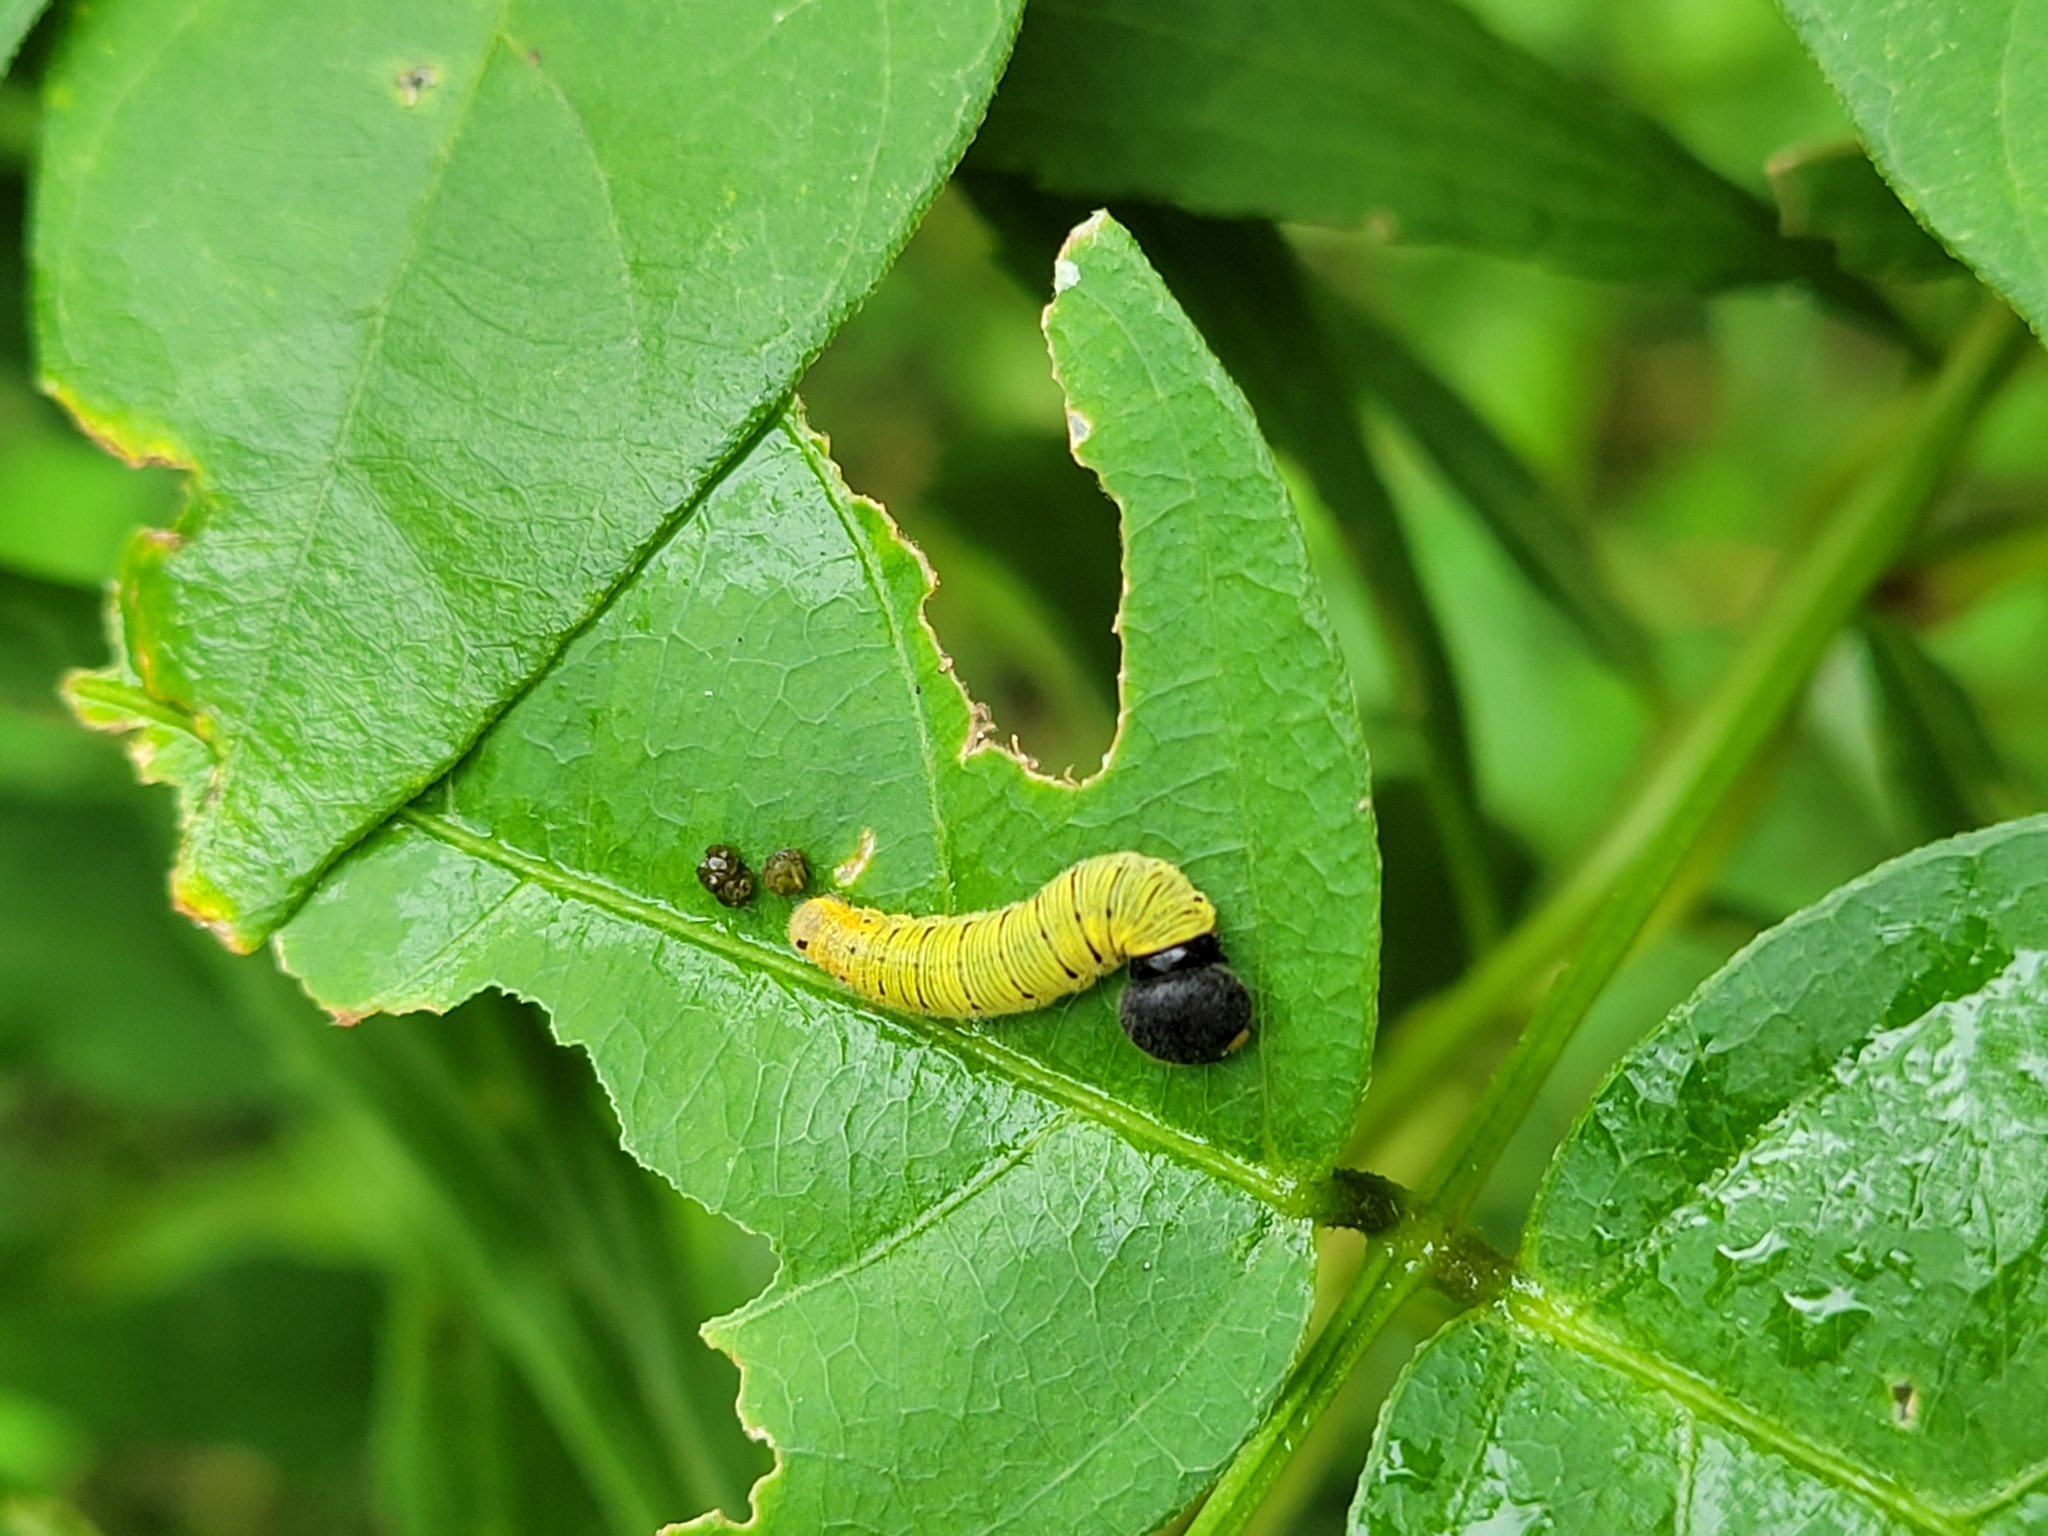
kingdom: Animalia
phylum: Arthropoda
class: Insecta
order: Lepidoptera
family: Hesperiidae
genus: Epargyreus
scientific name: Epargyreus clarus
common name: Silver-spotted skipper
